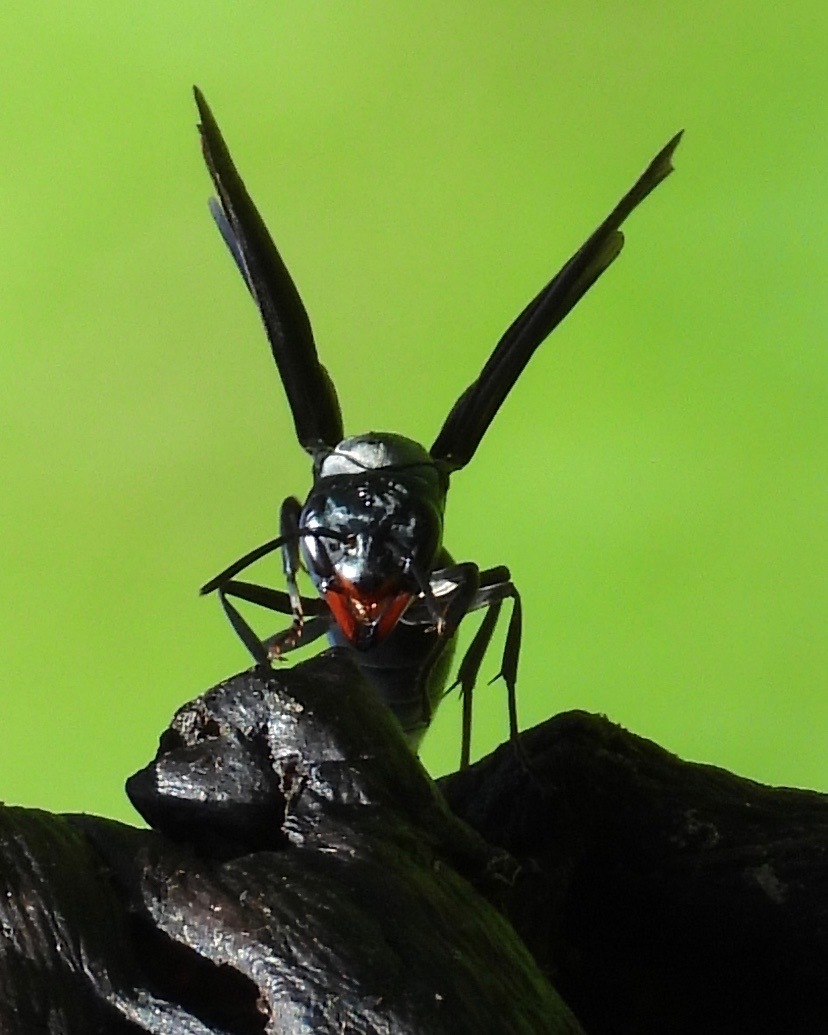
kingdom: Animalia
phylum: Arthropoda
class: Insecta
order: Hymenoptera
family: Vespidae
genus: Synoeca
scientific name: Synoeca septentrionalis
